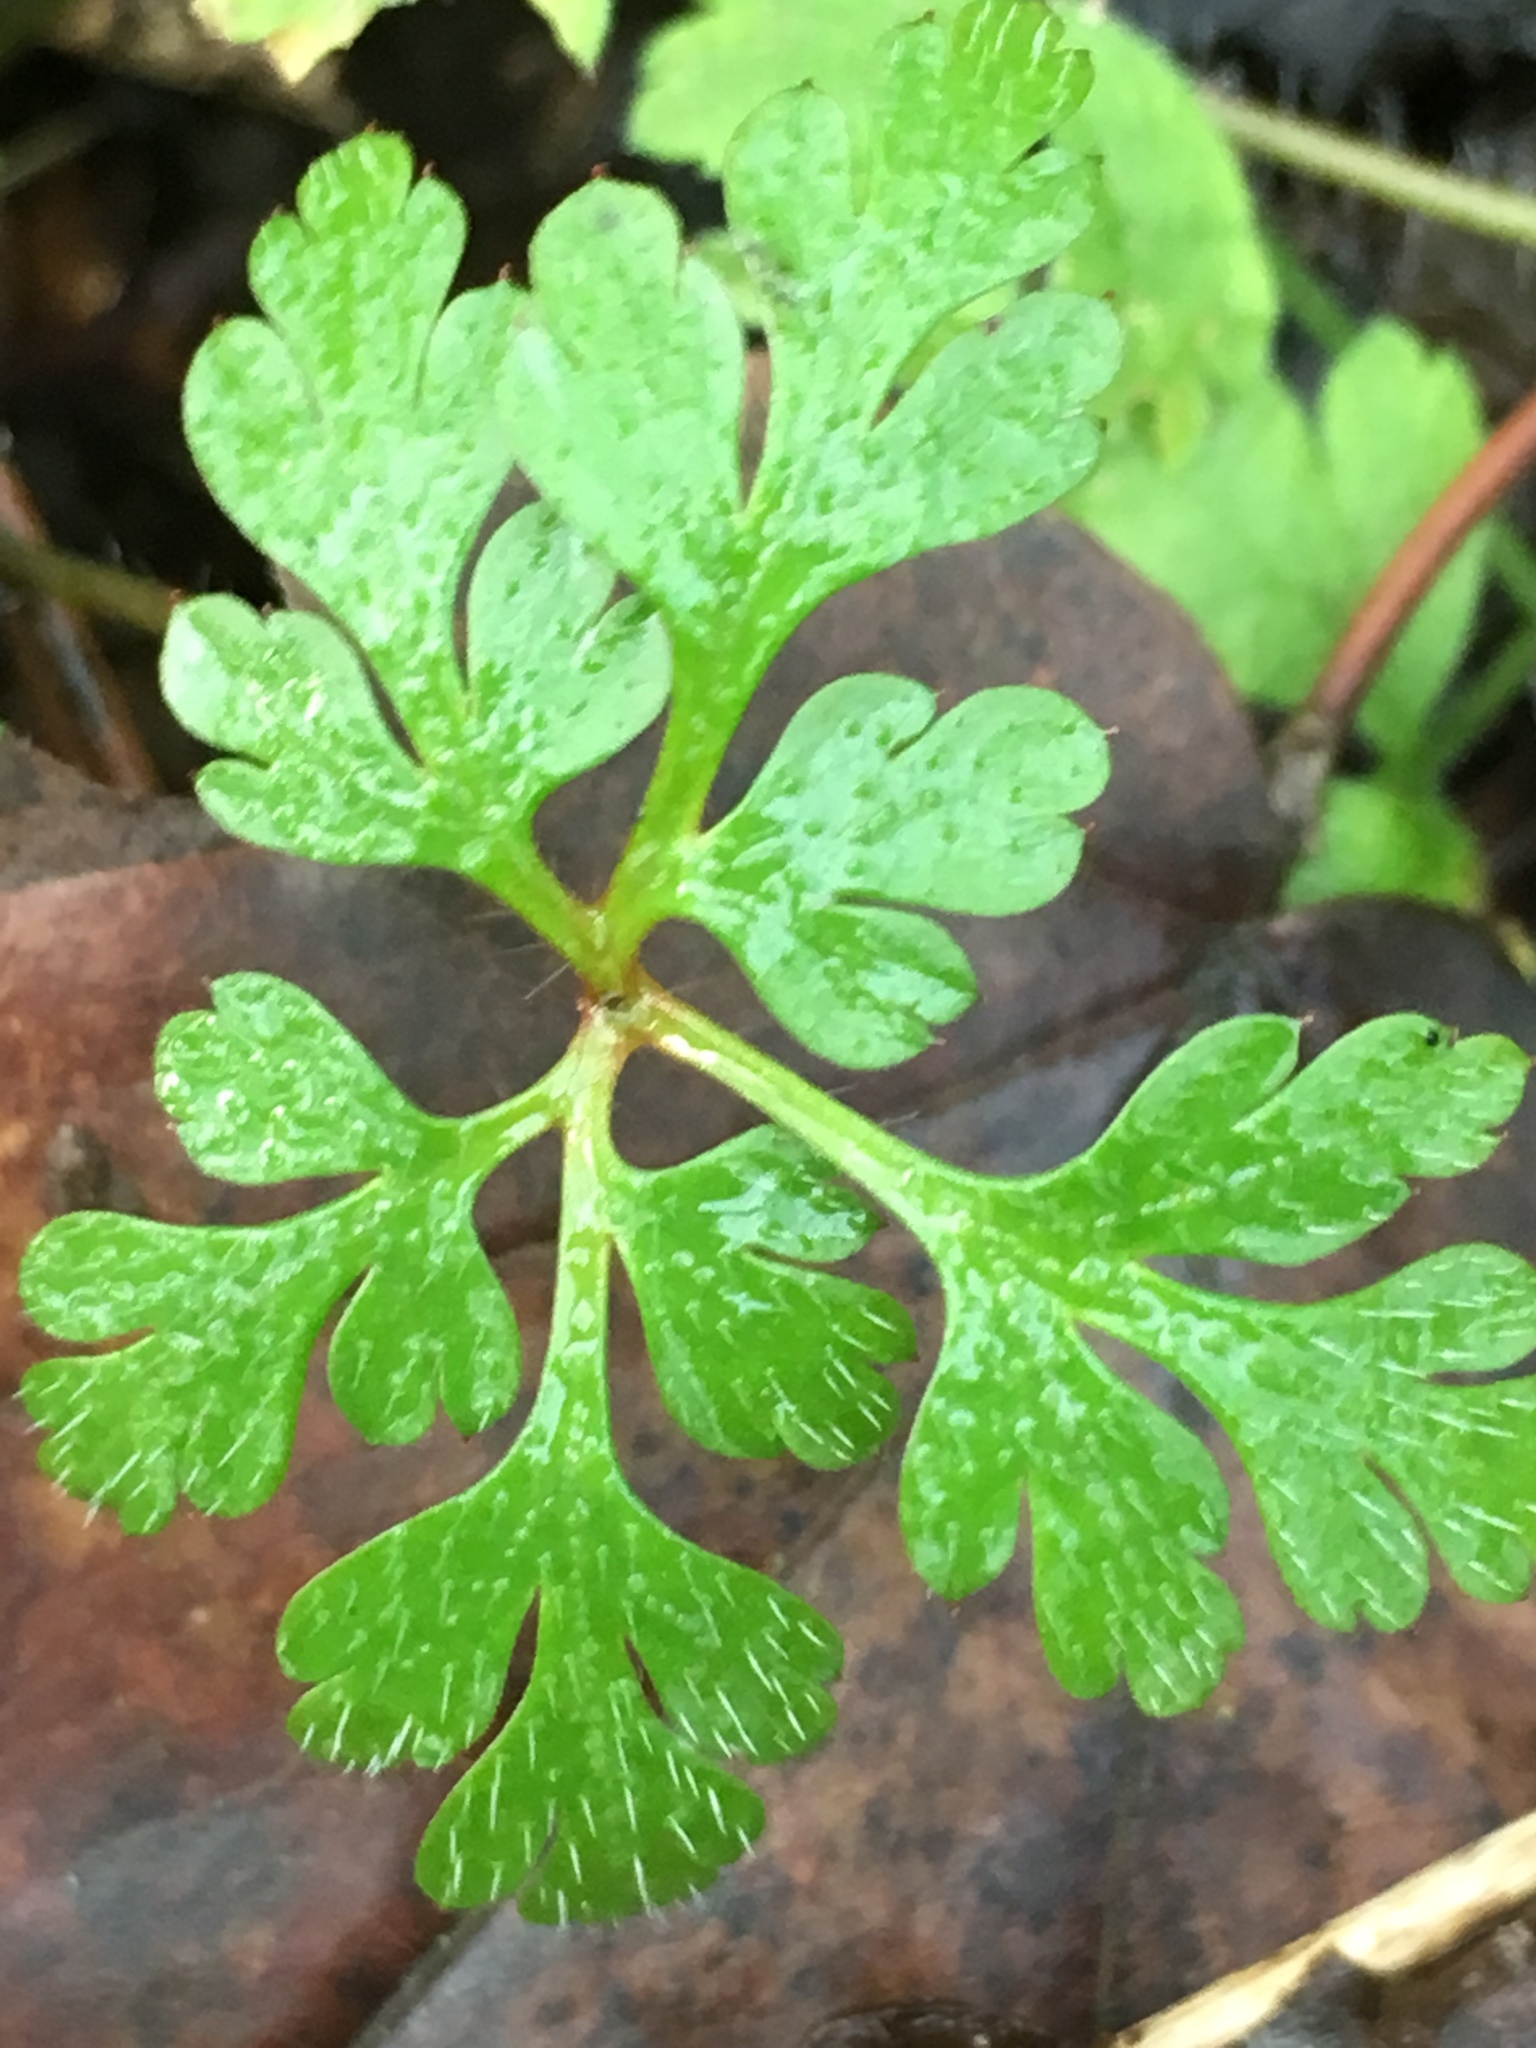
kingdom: Plantae
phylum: Tracheophyta
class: Magnoliopsida
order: Geraniales
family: Geraniaceae
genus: Geranium
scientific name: Geranium robertianum
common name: Herb-robert
